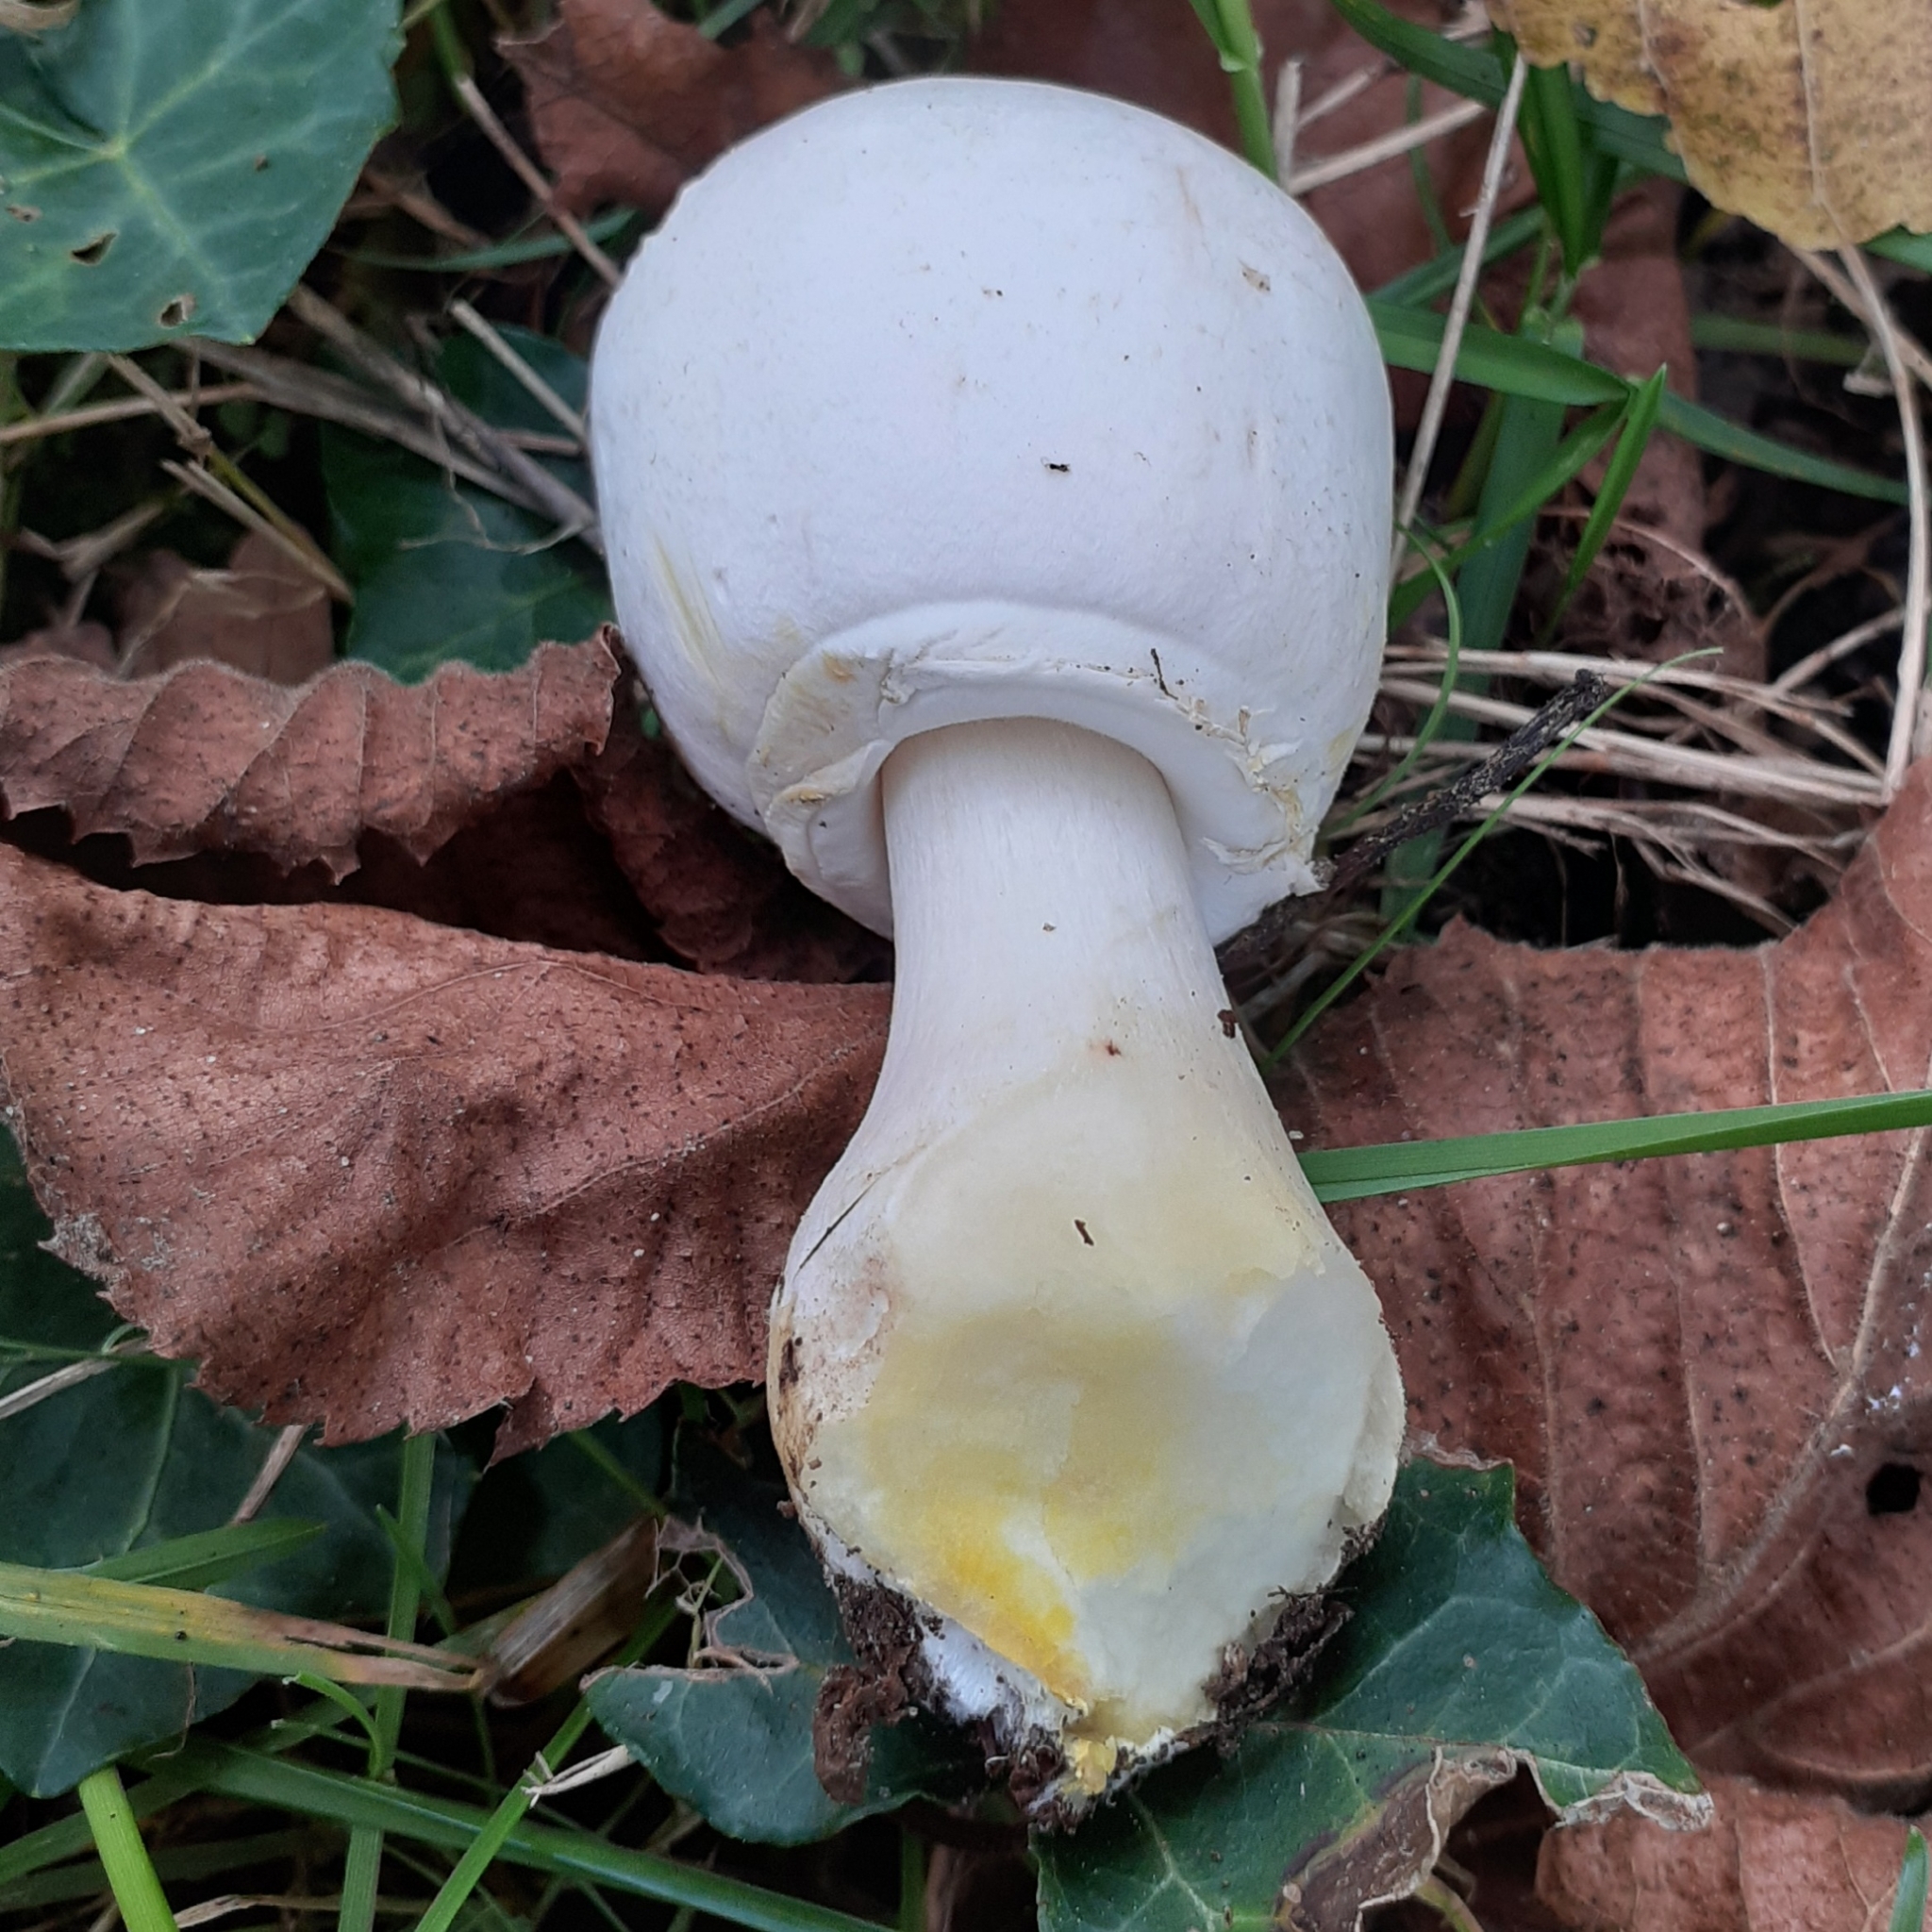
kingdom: Fungi
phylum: Basidiomycota
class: Agaricomycetes
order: Agaricales
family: Agaricaceae
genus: Agaricus
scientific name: Agaricus xanthodermus
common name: Yellow stainer
